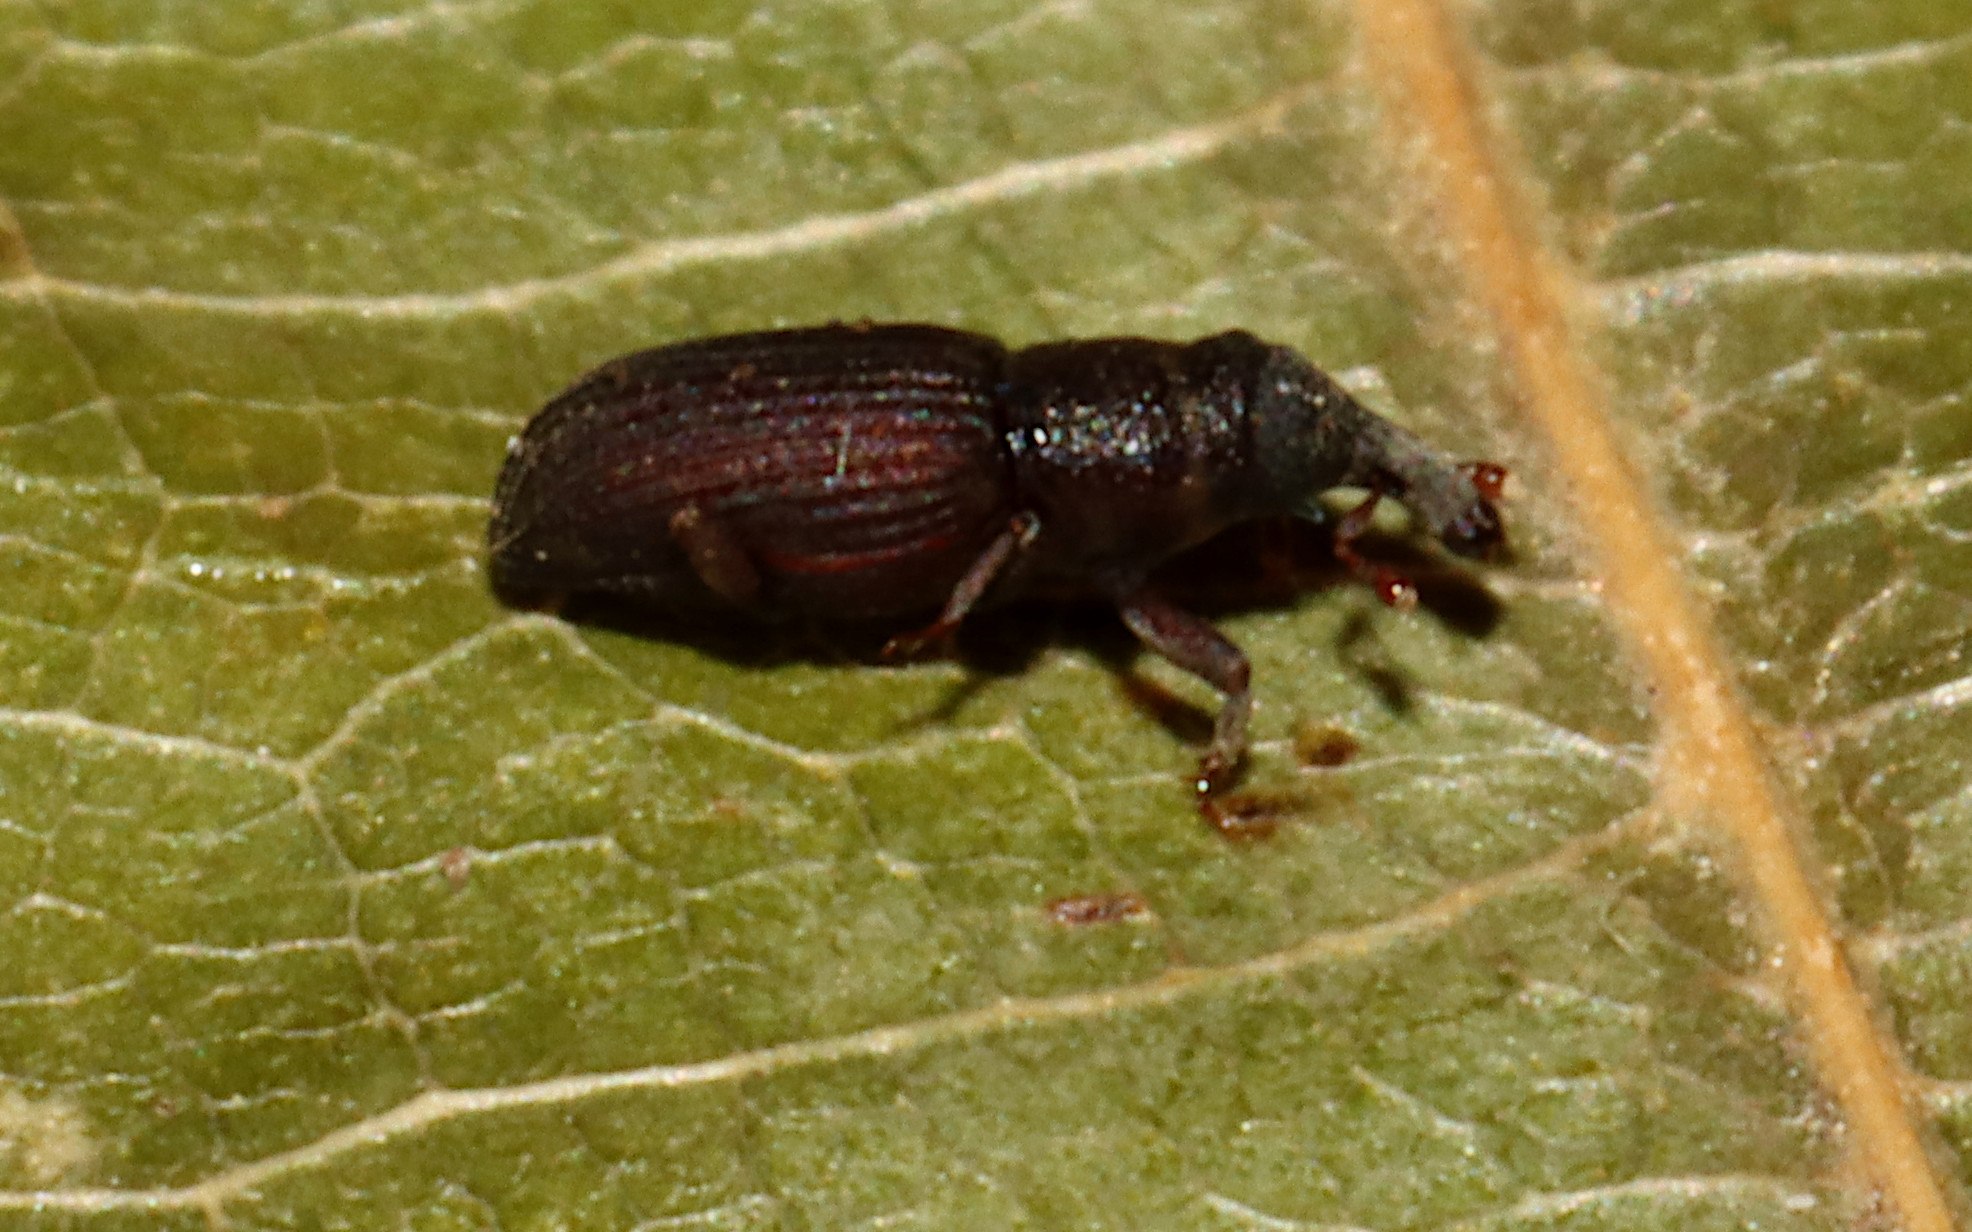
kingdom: Animalia
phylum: Arthropoda
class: Insecta
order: Coleoptera
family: Dryophthoridae
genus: Dryophthorus
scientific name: Dryophthorus americanus
